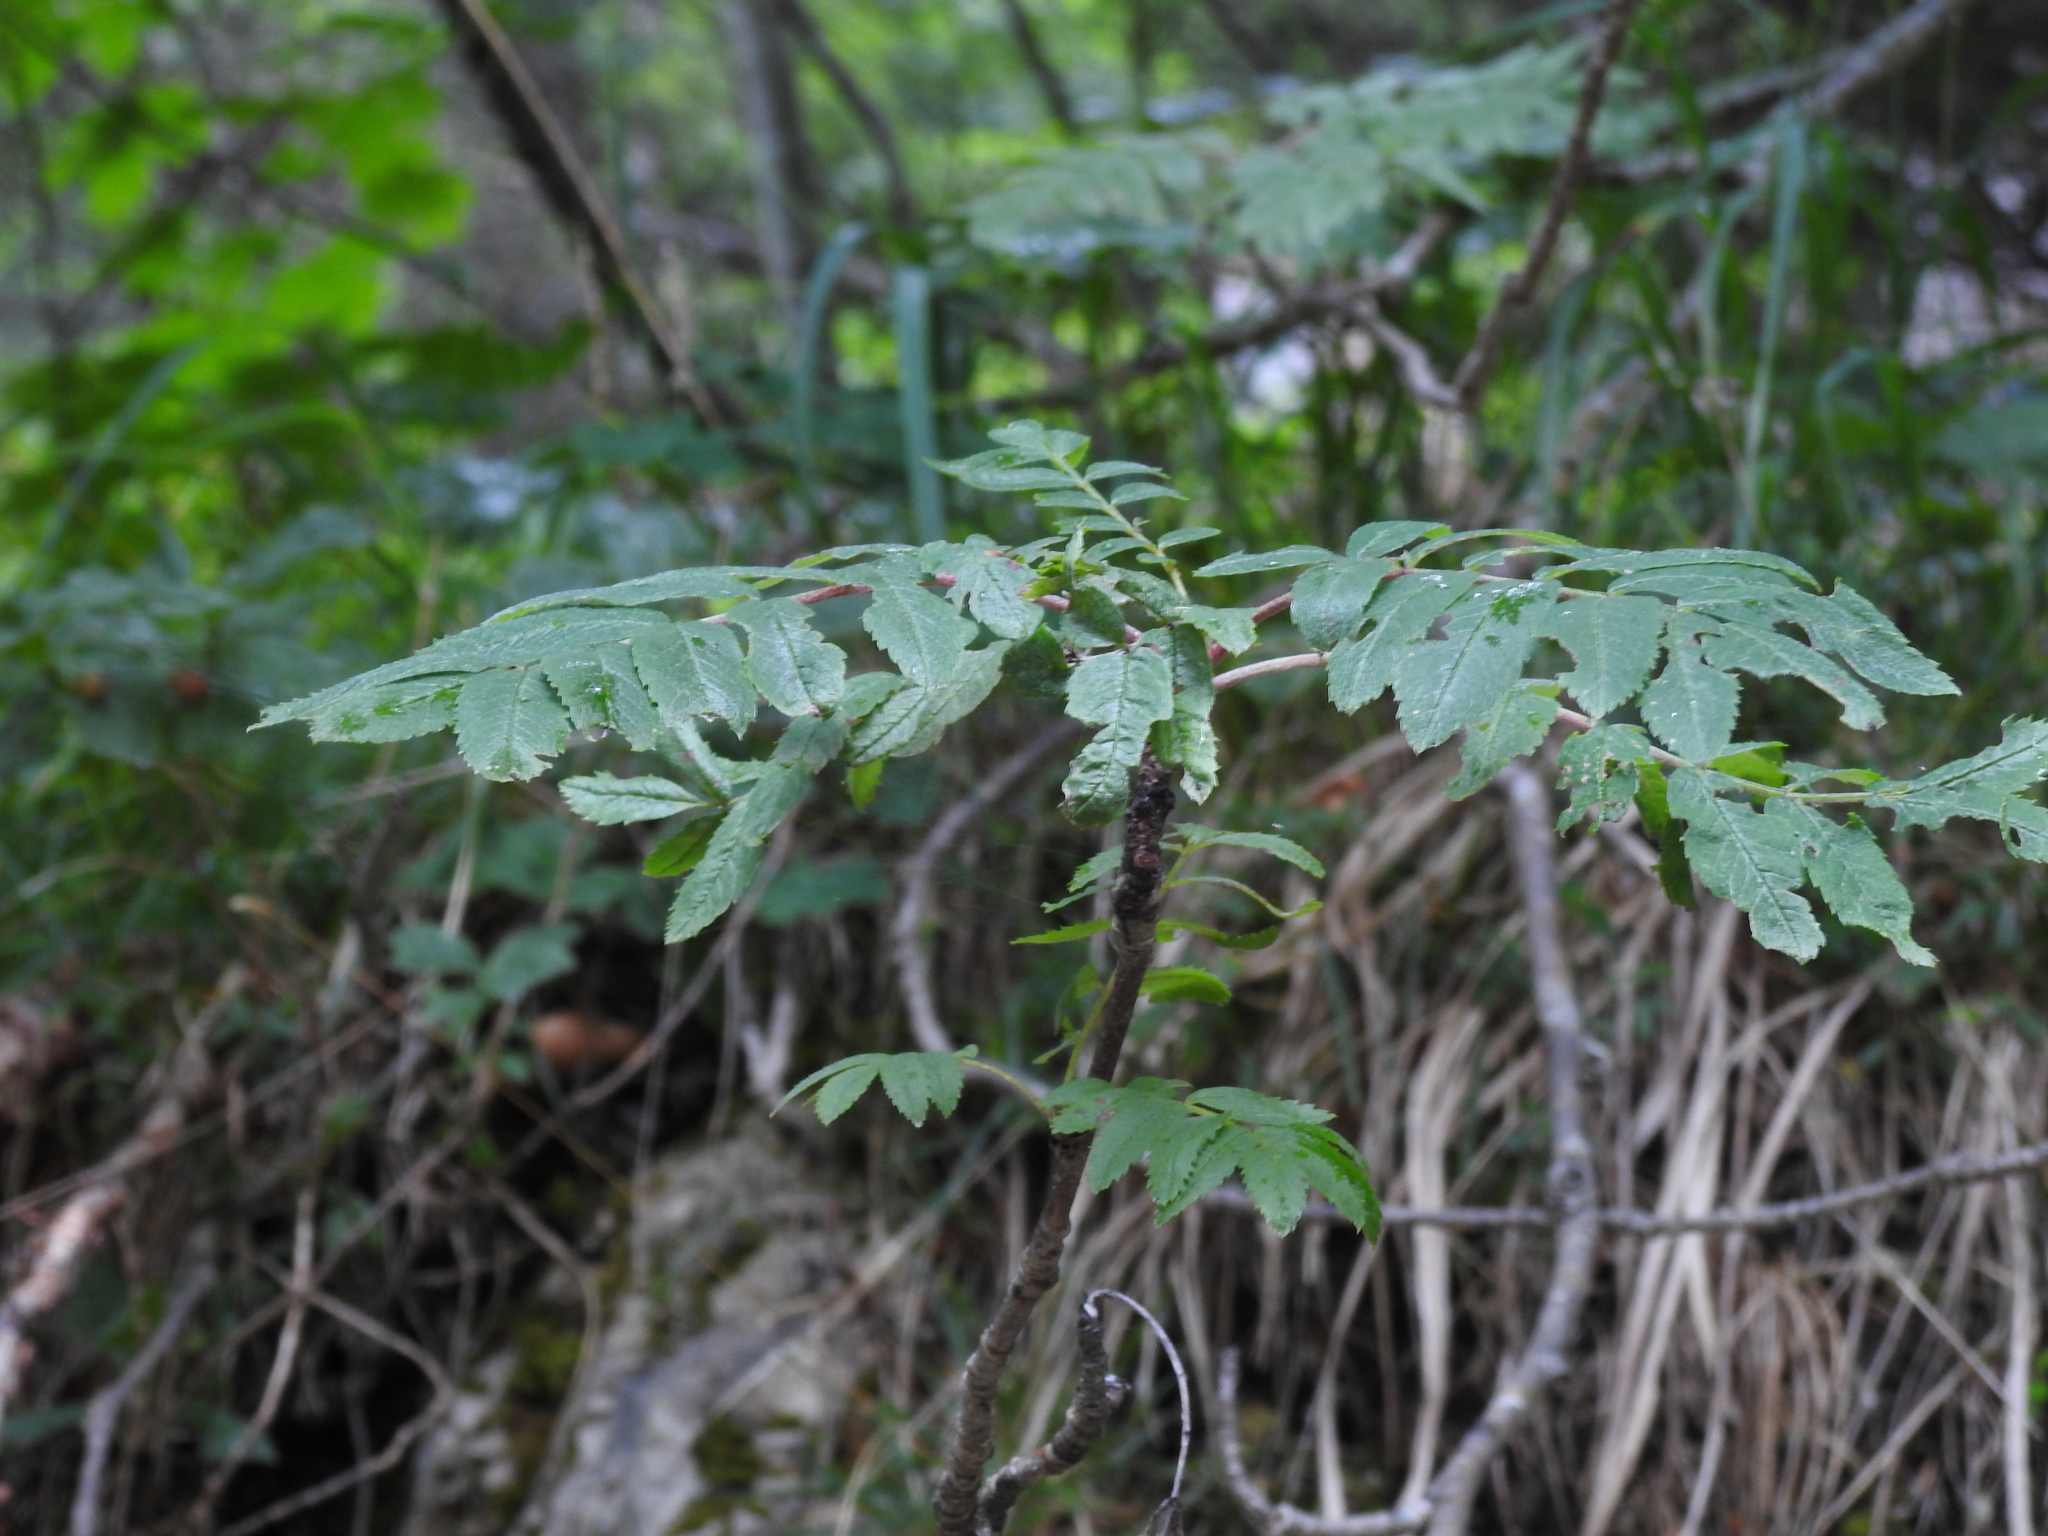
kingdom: Plantae
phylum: Tracheophyta
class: Magnoliopsida
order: Rosales
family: Rosaceae
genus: Sorbus
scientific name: Sorbus aucuparia
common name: Rowan
